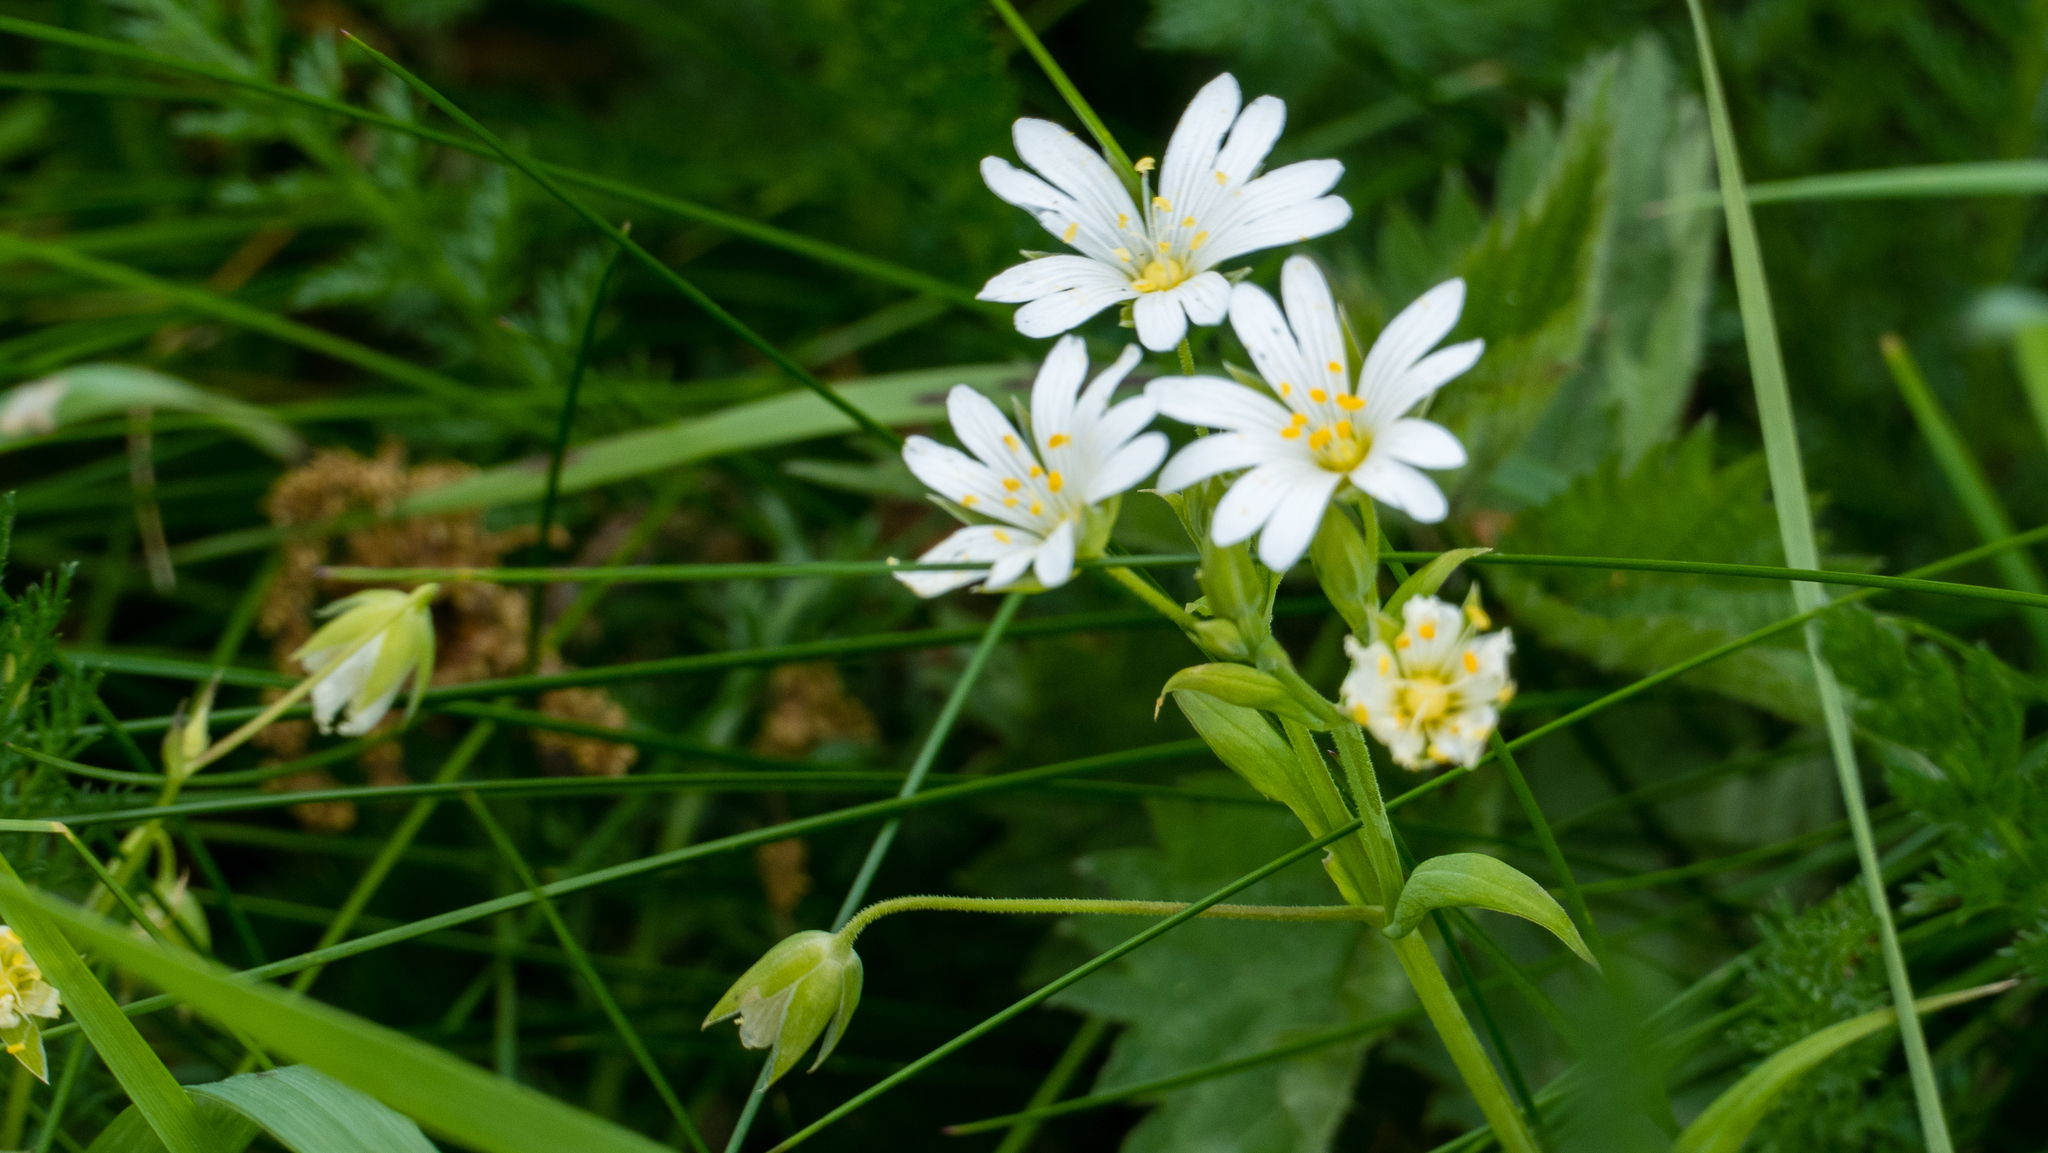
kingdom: Plantae
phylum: Tracheophyta
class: Magnoliopsida
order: Caryophyllales
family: Caryophyllaceae
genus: Rabelera
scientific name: Rabelera holostea
